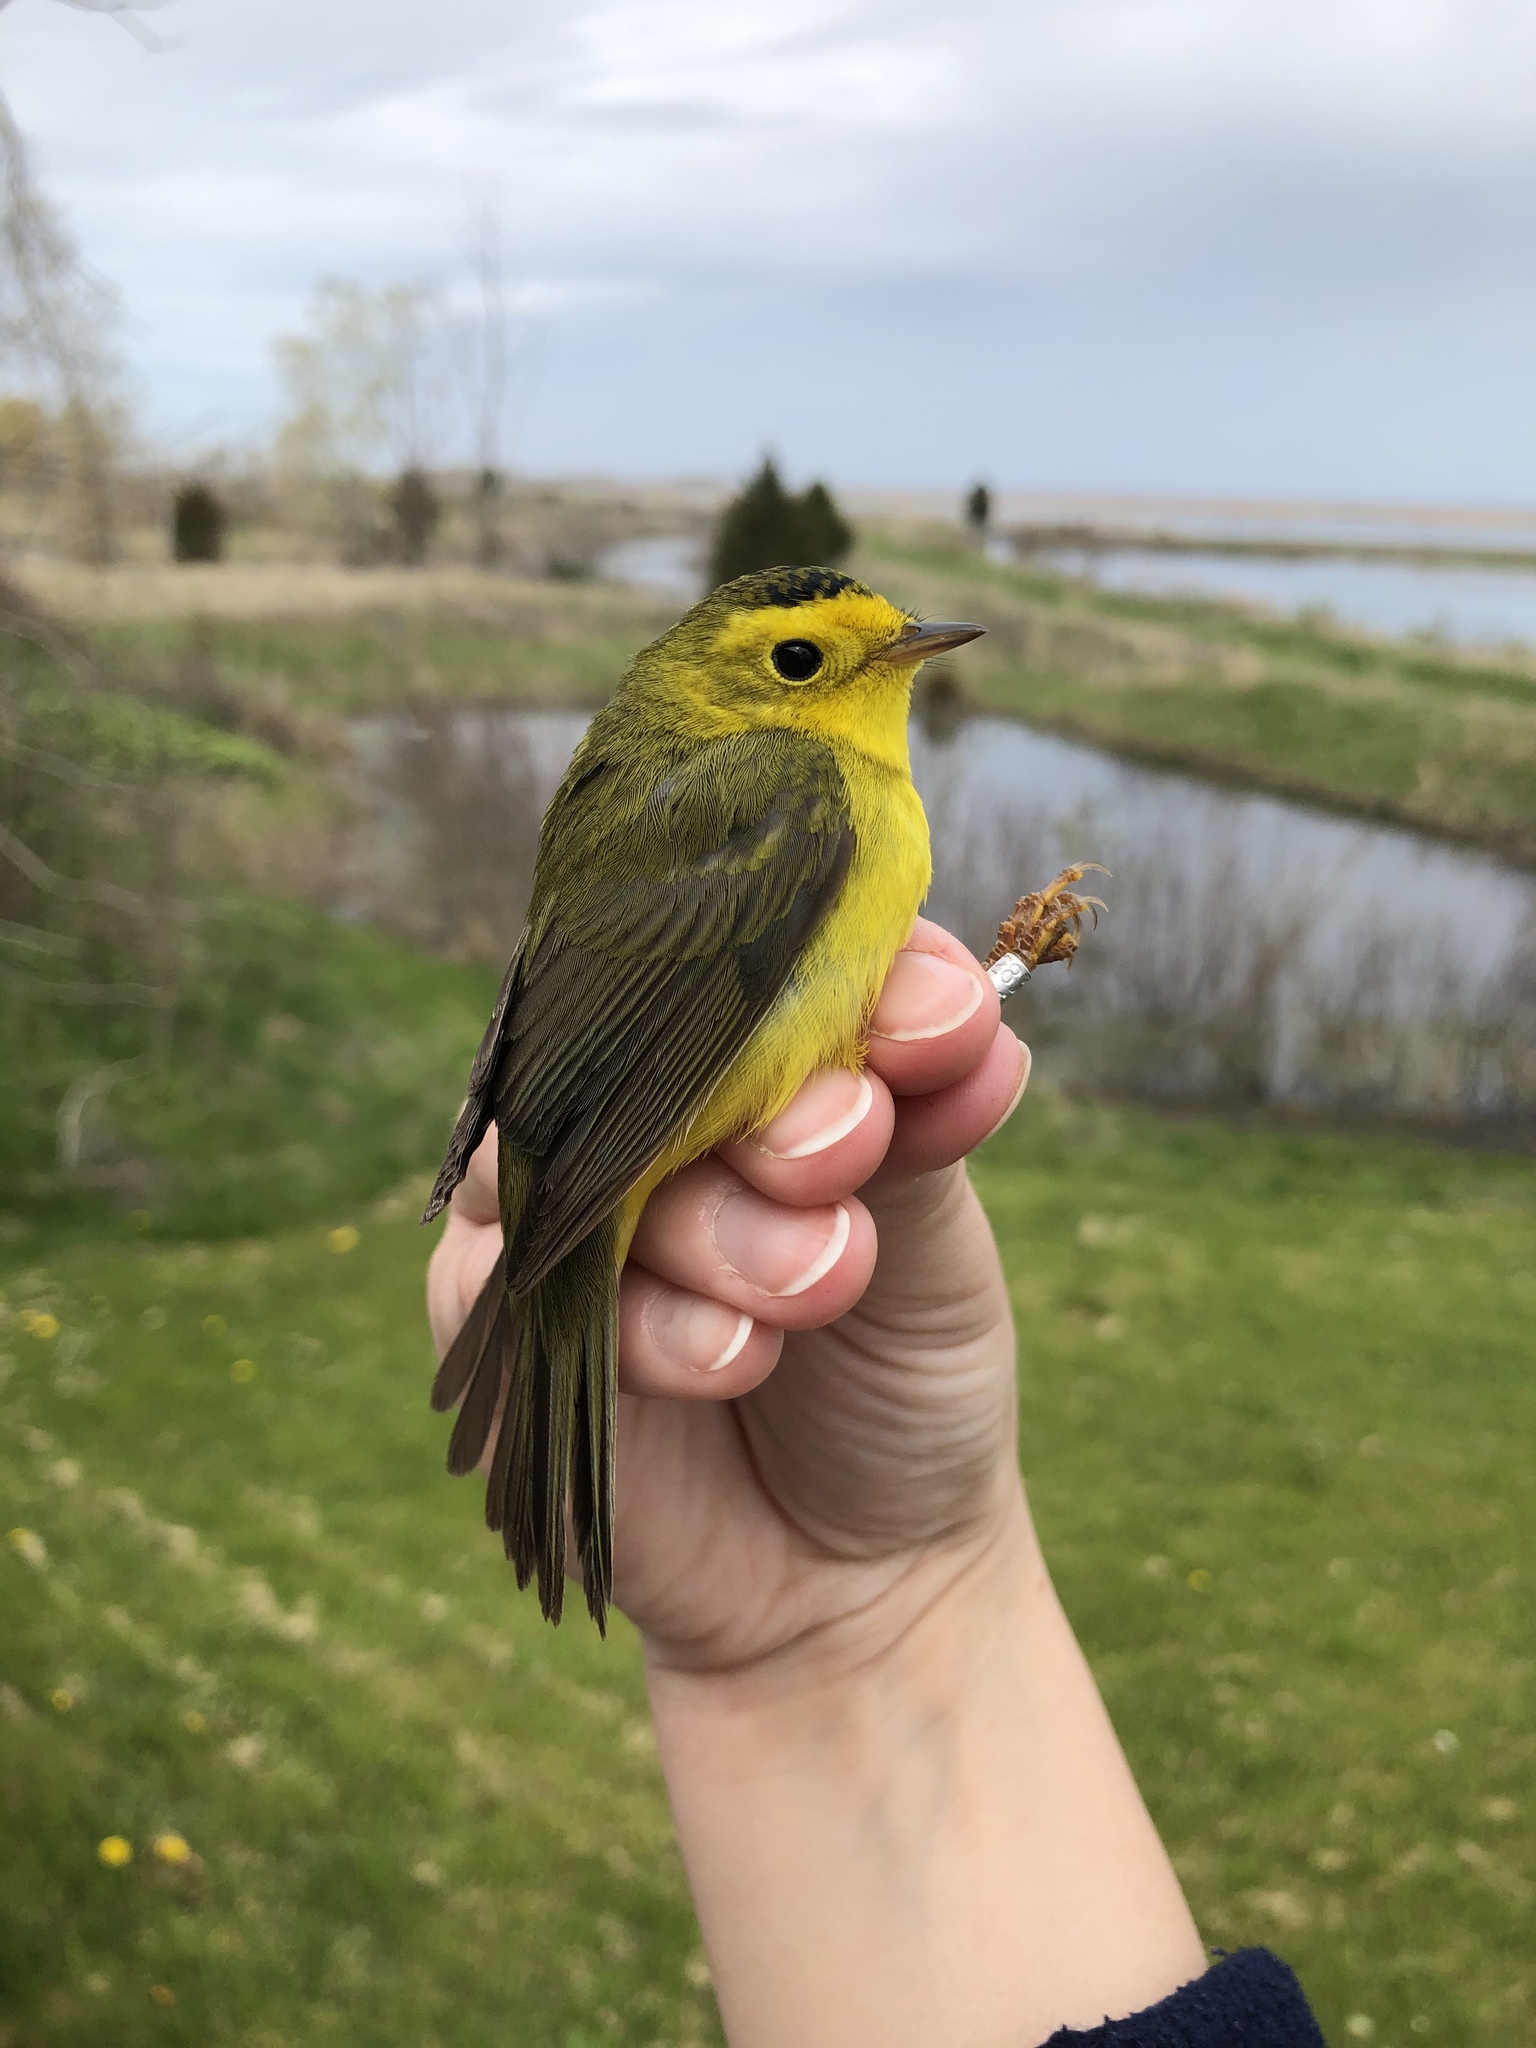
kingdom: Animalia
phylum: Chordata
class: Aves
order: Passeriformes
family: Parulidae
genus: Cardellina
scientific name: Cardellina pusilla
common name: Wilson's warbler
